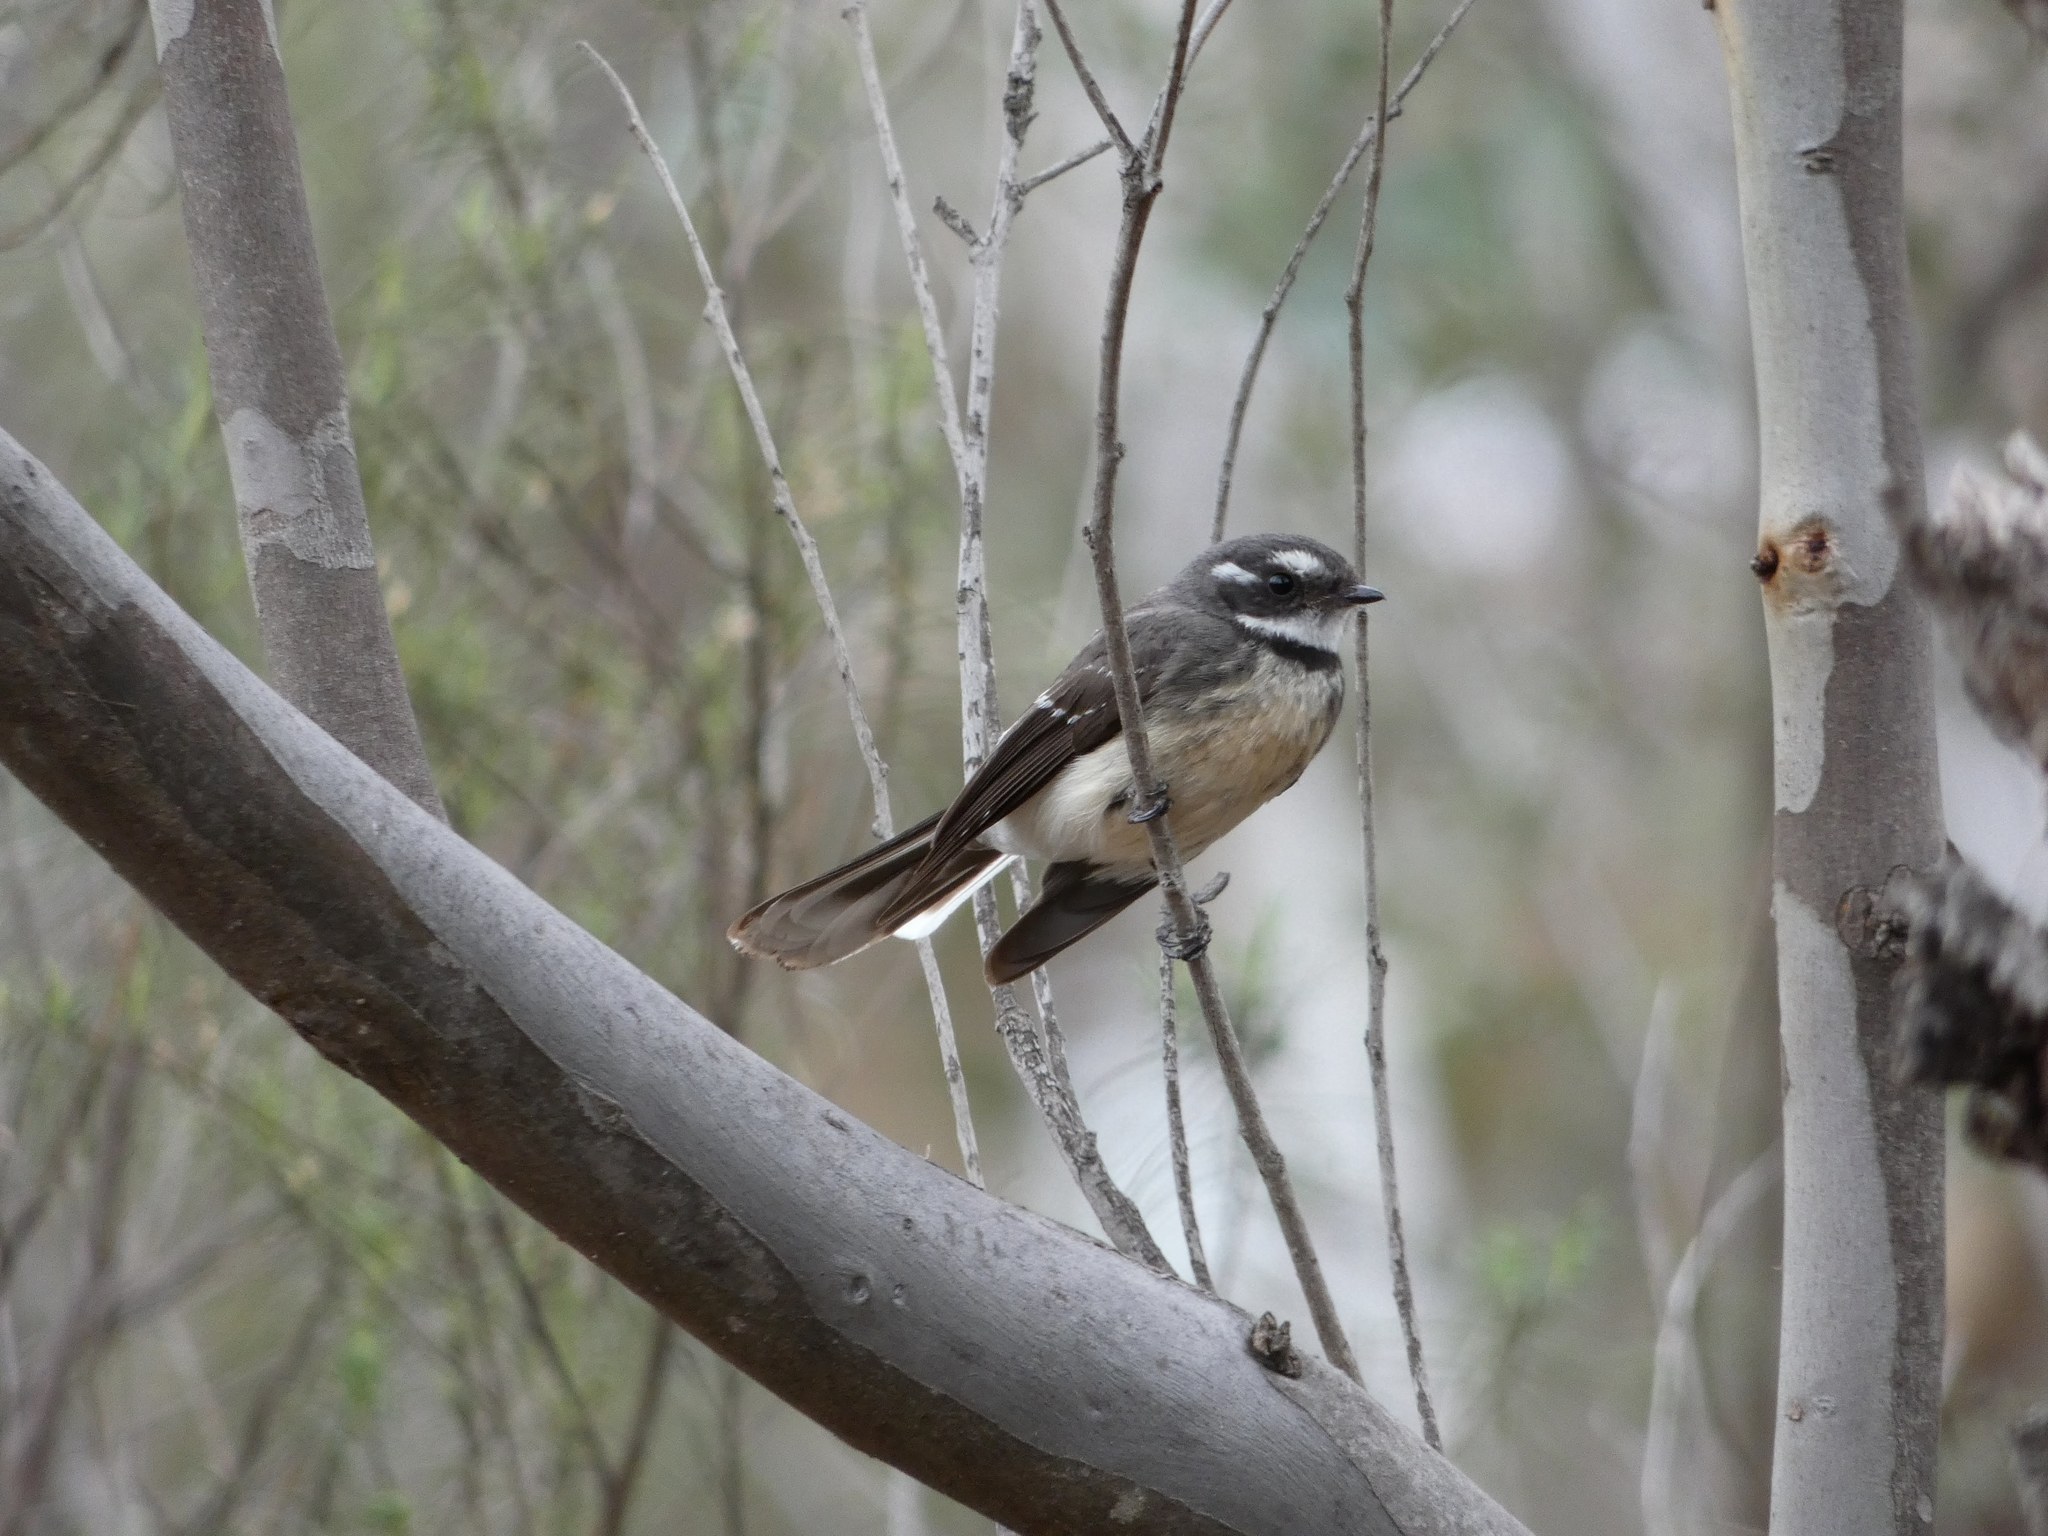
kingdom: Animalia
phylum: Chordata
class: Aves
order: Passeriformes
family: Rhipiduridae
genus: Rhipidura
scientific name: Rhipidura albiscapa
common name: Grey fantail
